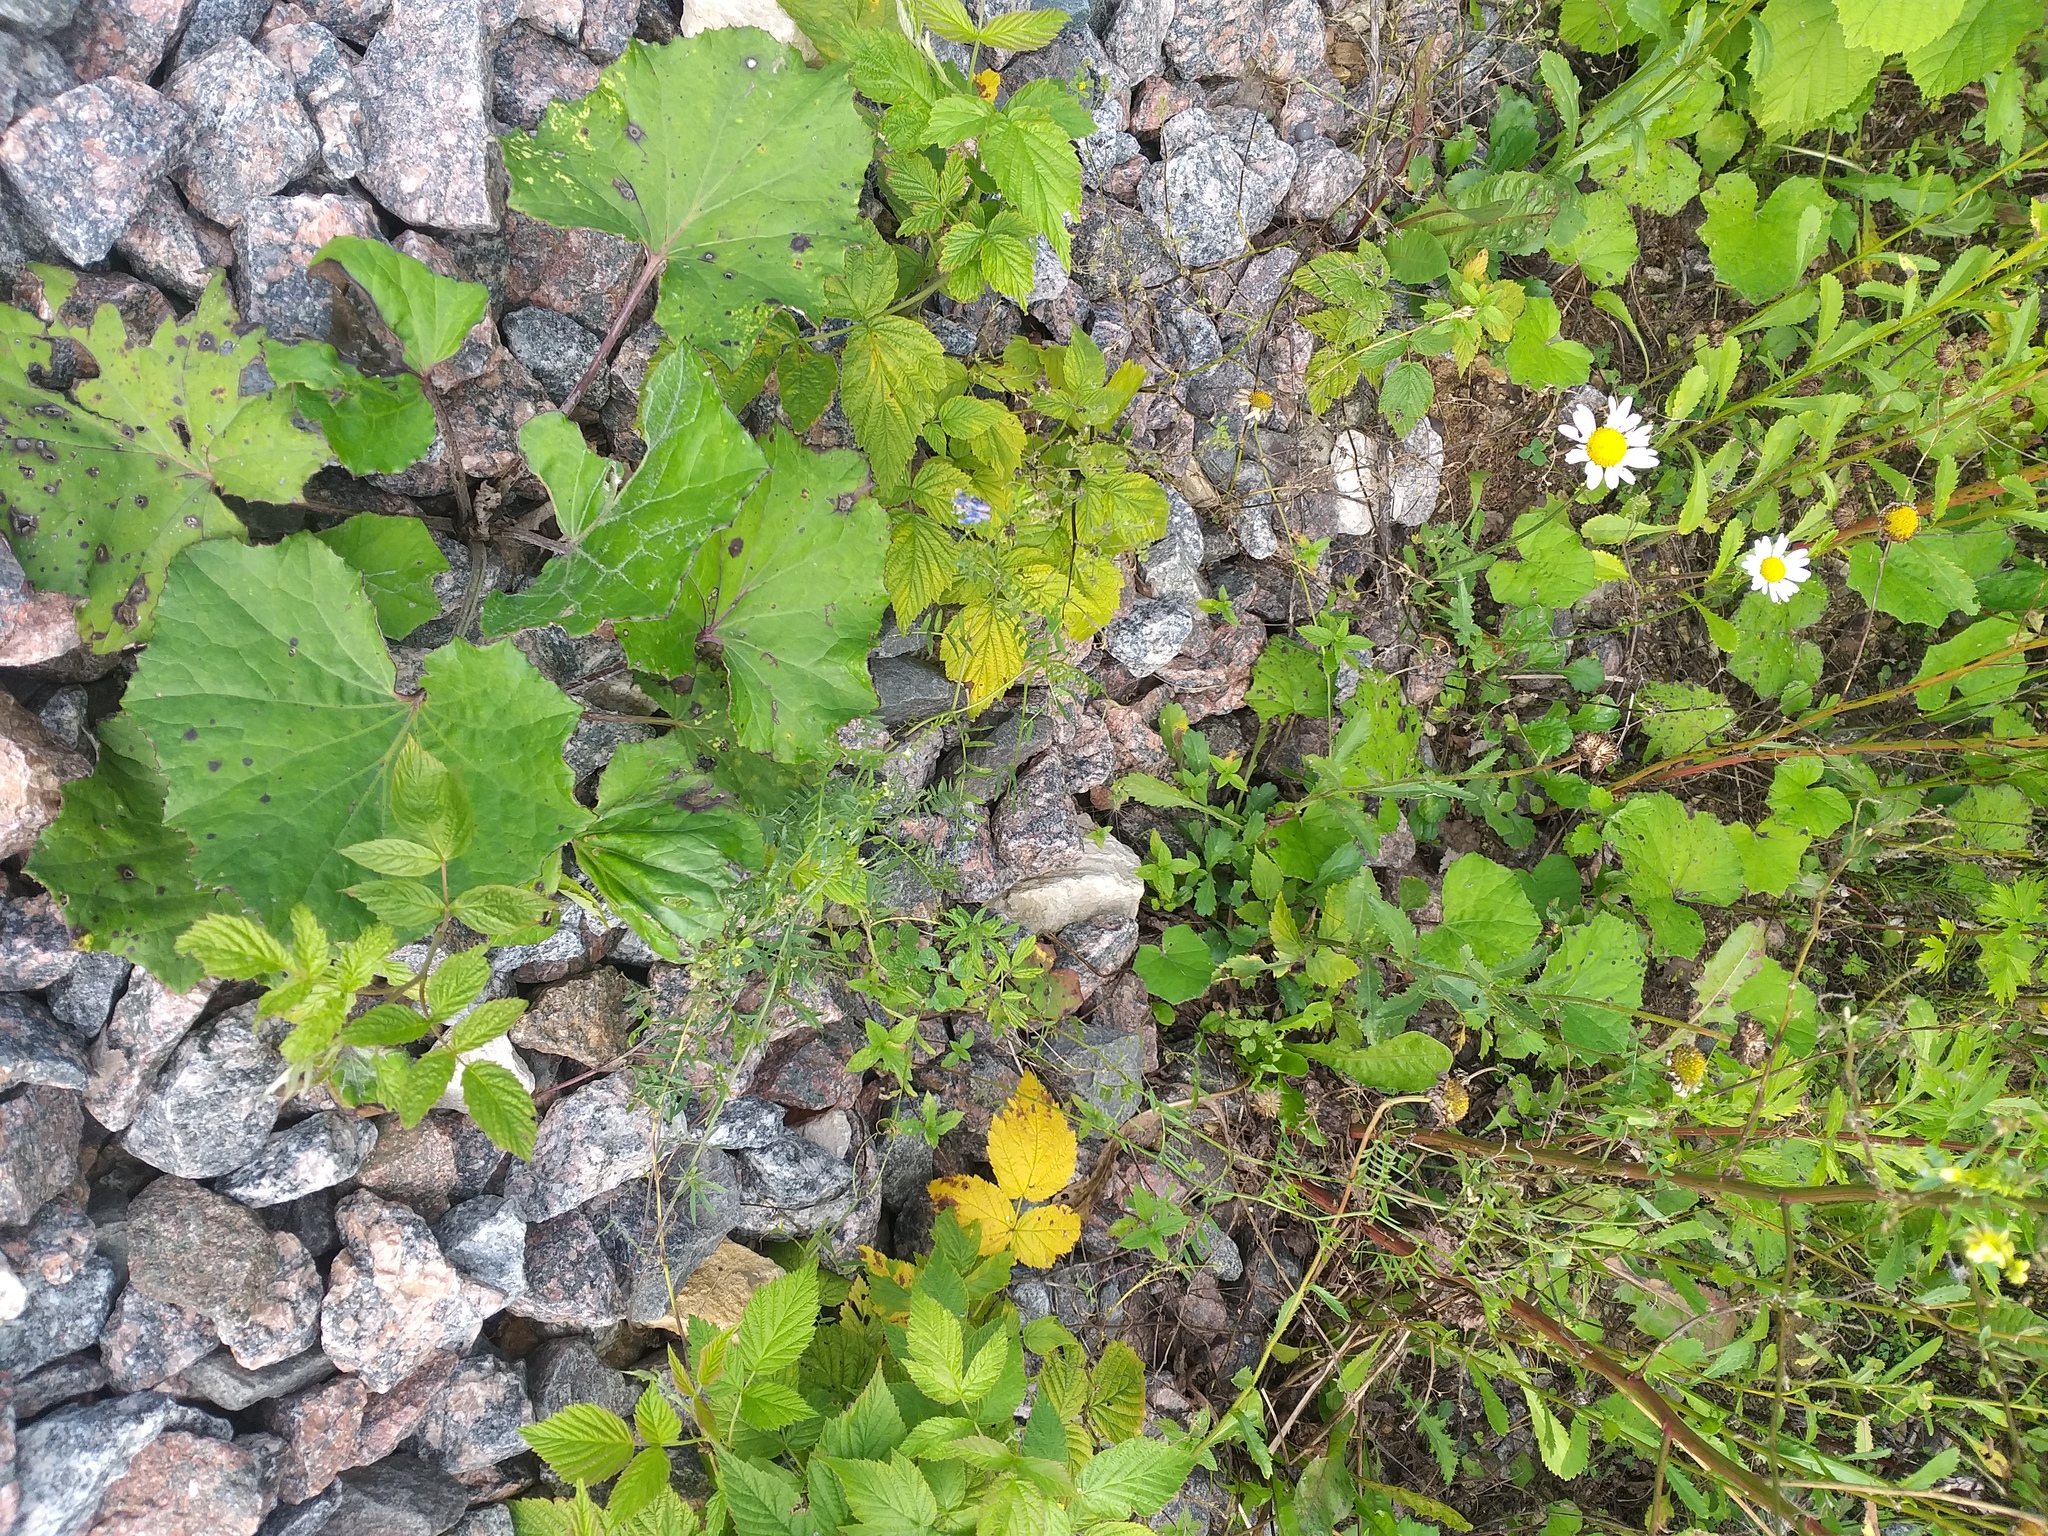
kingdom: Plantae
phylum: Tracheophyta
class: Magnoliopsida
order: Fabales
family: Fabaceae
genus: Vicia
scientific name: Vicia cracca
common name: Bird vetch
